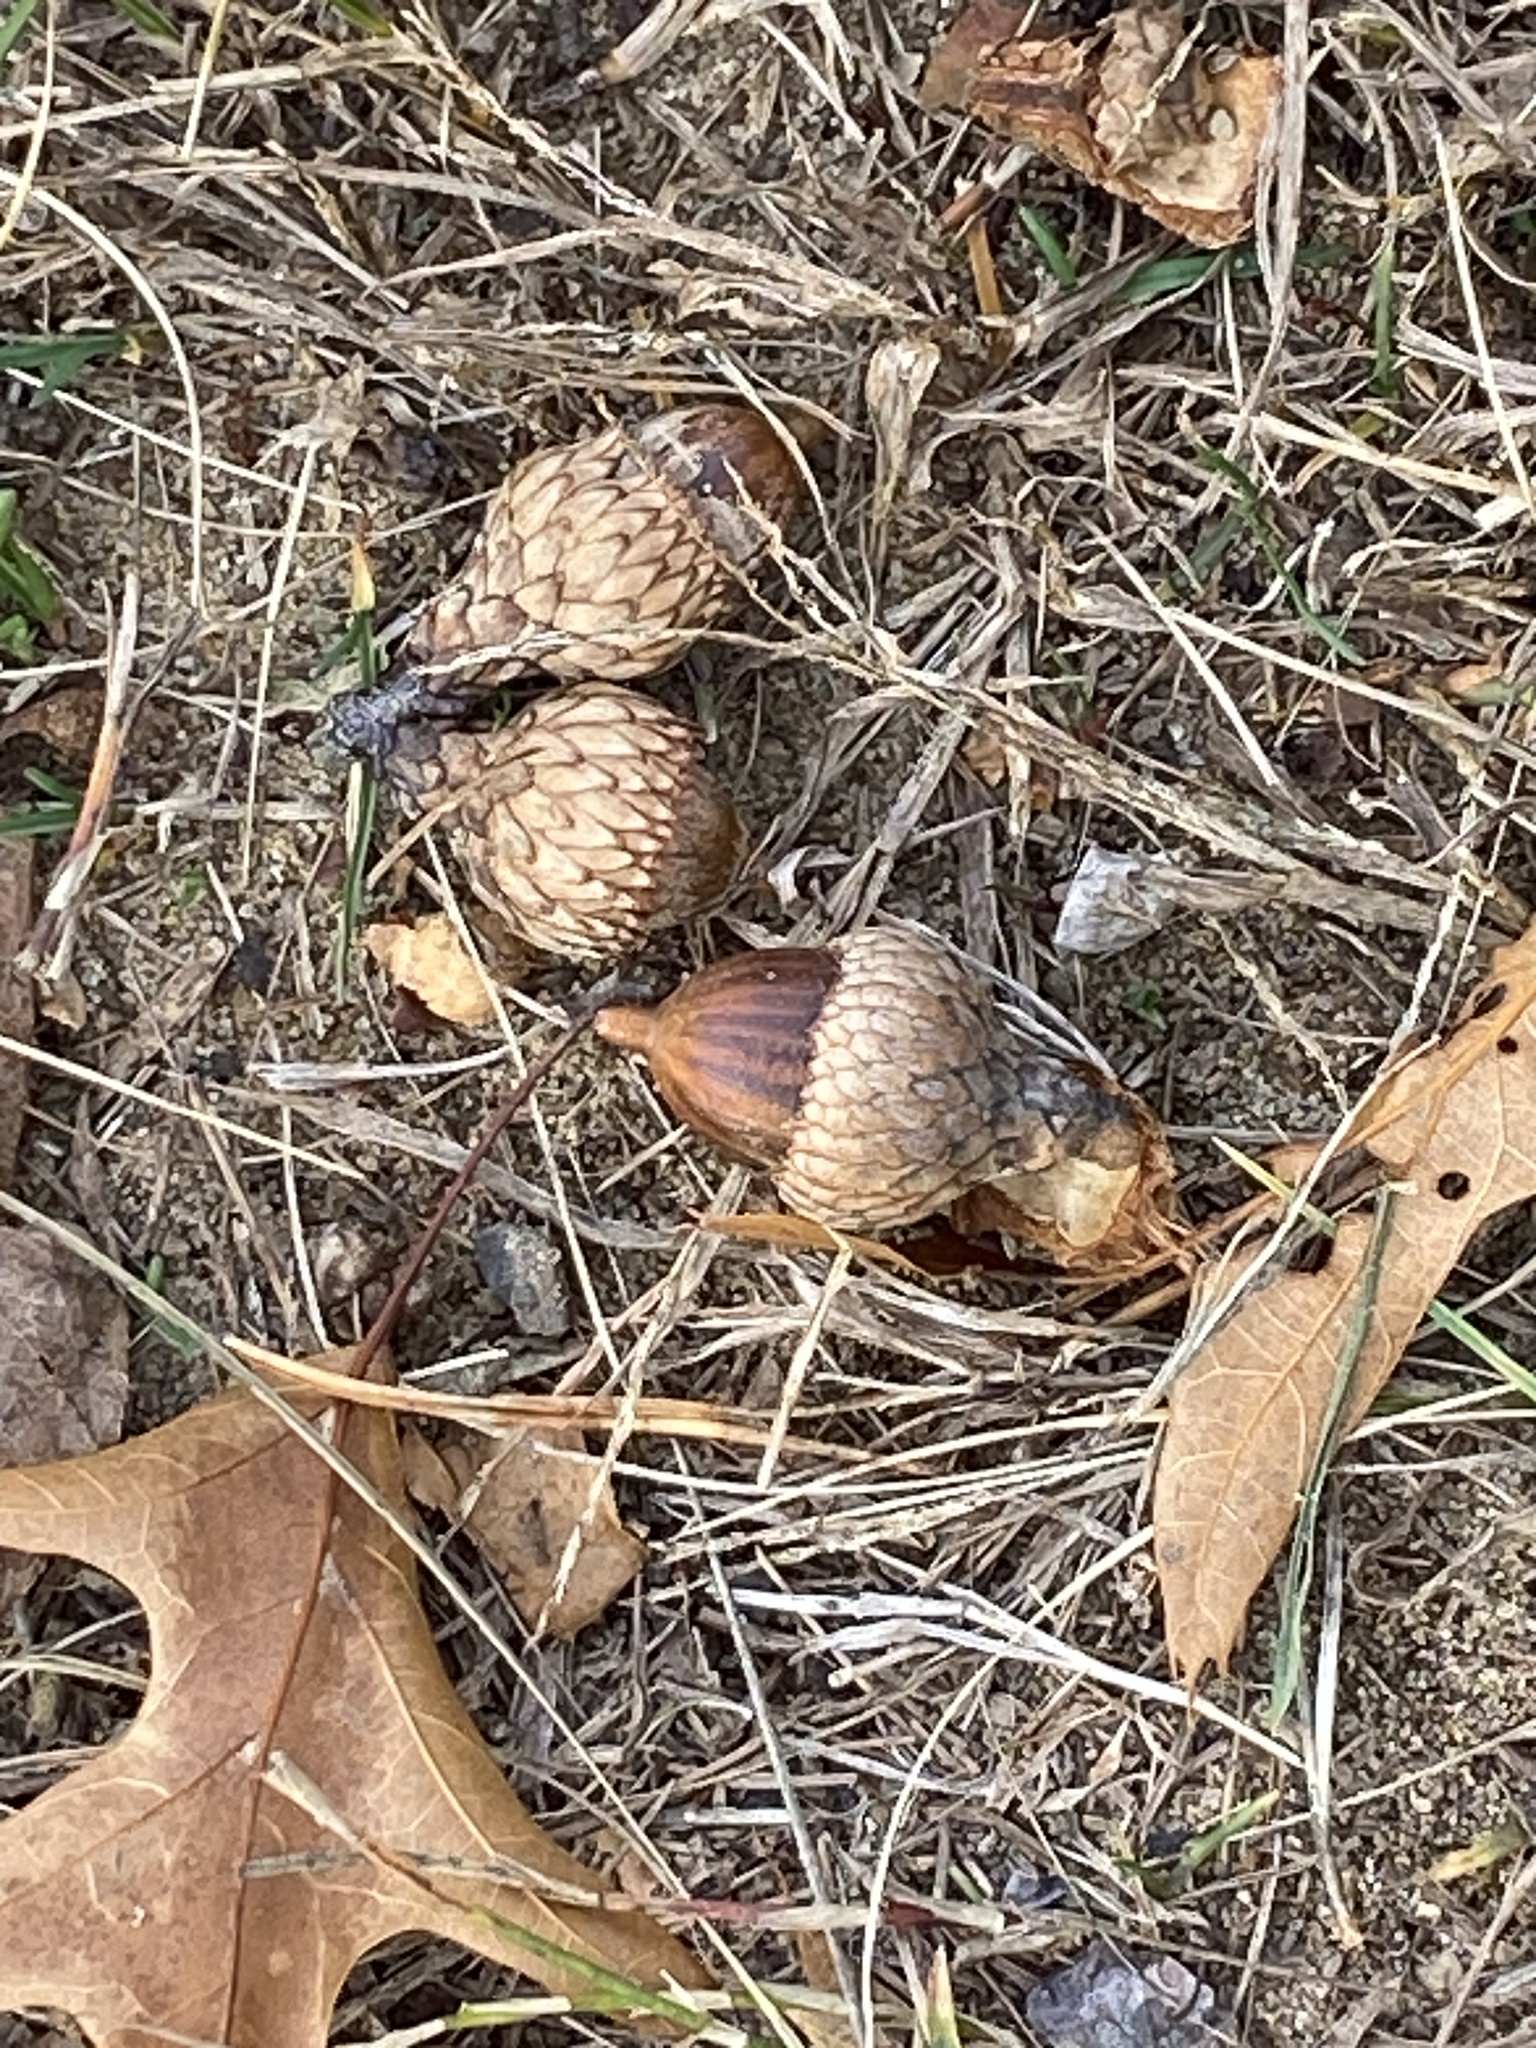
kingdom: Plantae
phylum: Tracheophyta
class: Magnoliopsida
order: Fagales
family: Fagaceae
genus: Quercus
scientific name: Quercus velutina
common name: Black oak
